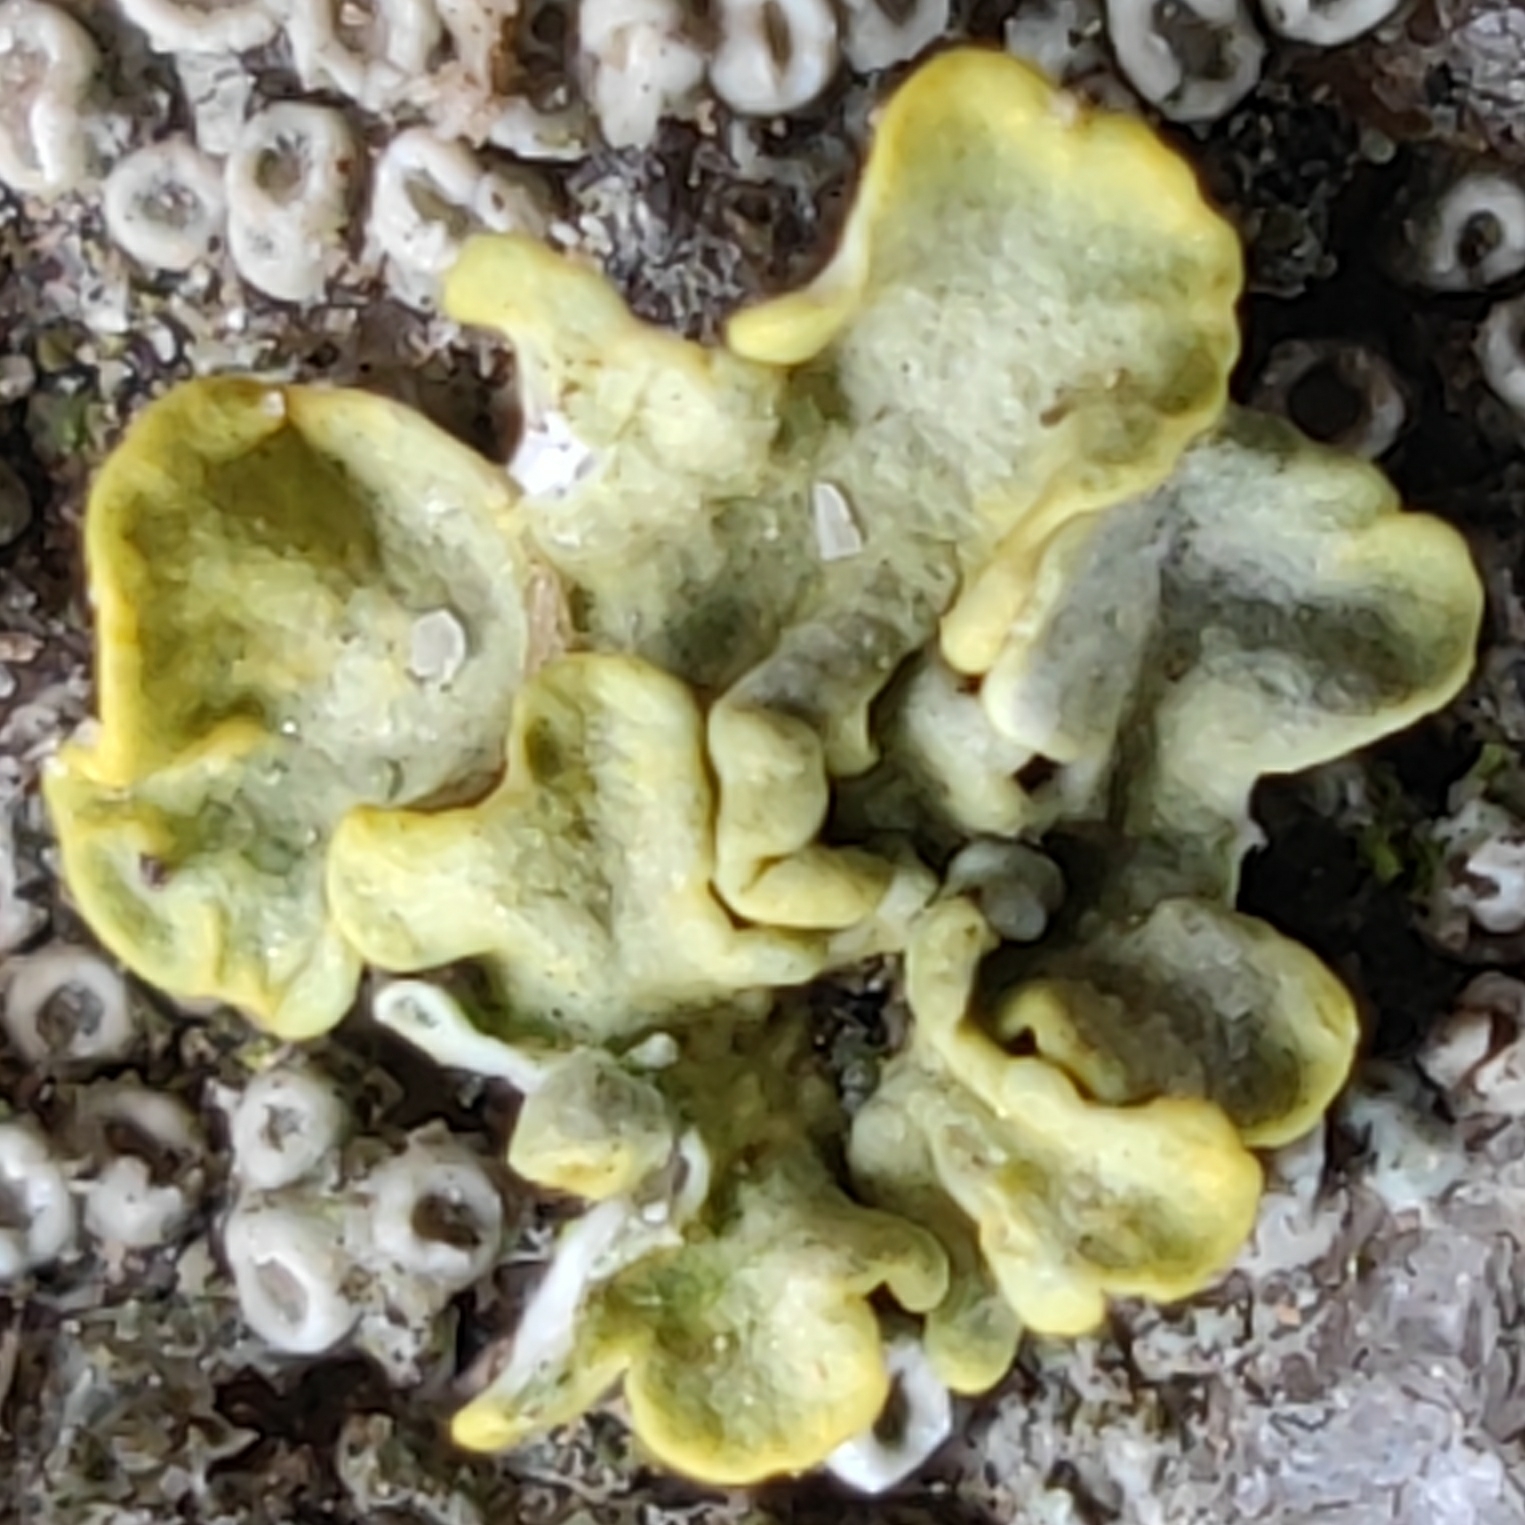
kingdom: Fungi
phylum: Ascomycota
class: Lecanoromycetes
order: Teloschistales
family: Teloschistaceae
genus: Xanthoria
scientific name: Xanthoria parietina
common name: Common orange lichen
